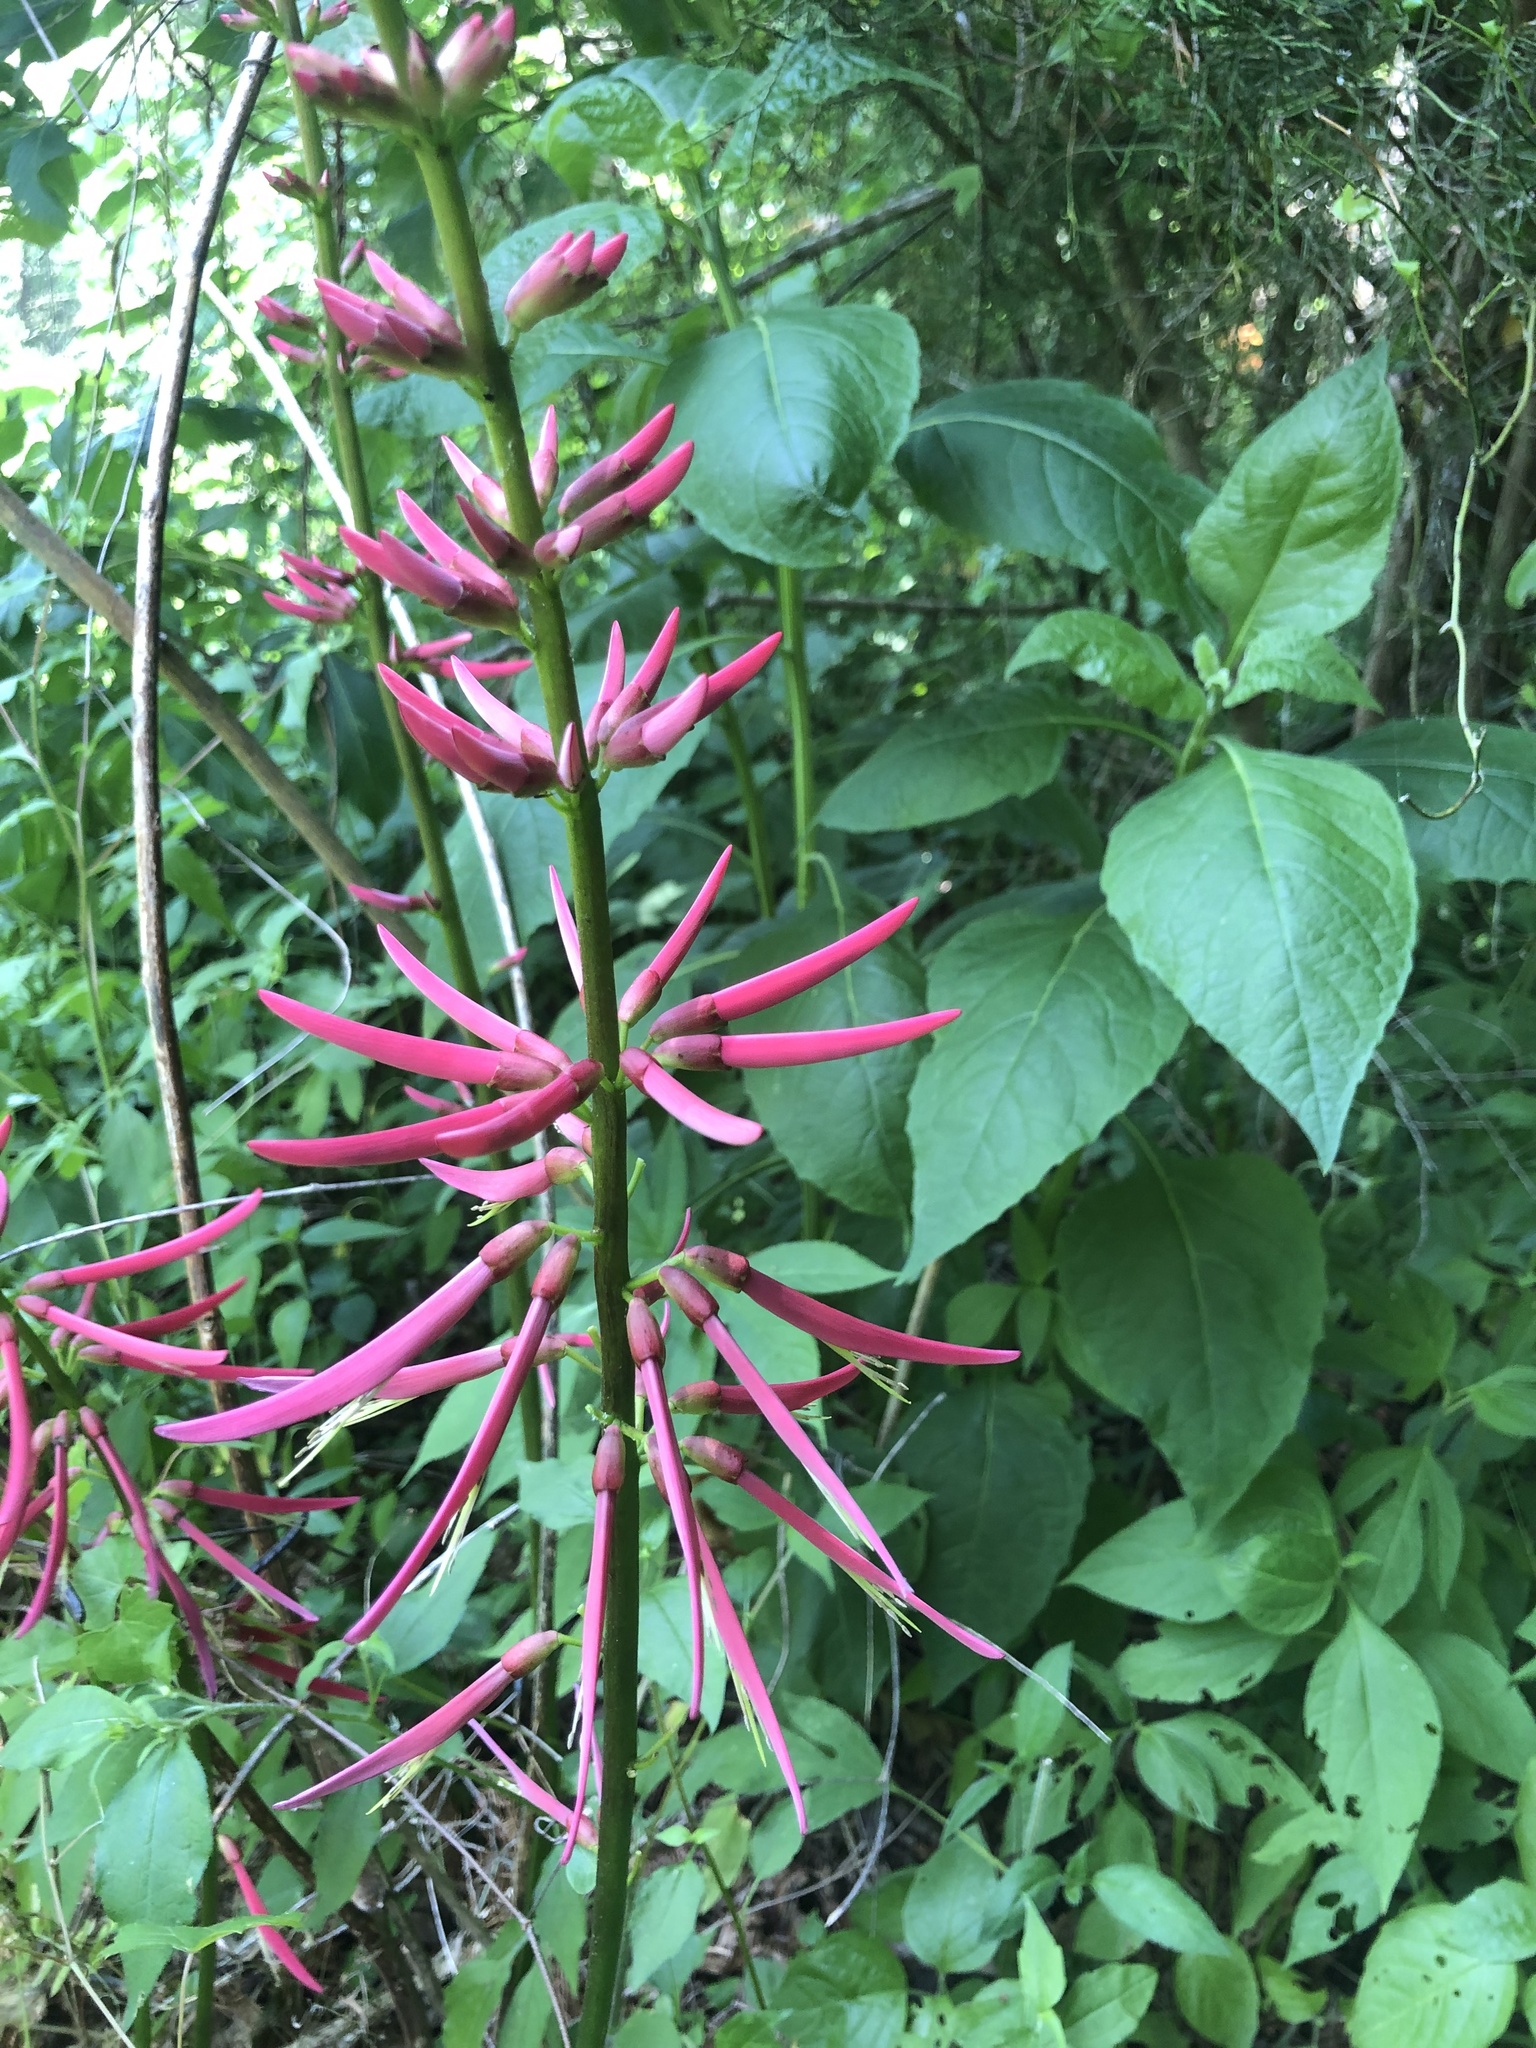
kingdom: Plantae
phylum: Tracheophyta
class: Magnoliopsida
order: Fabales
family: Fabaceae
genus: Erythrina
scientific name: Erythrina herbacea
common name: Coral-bean
